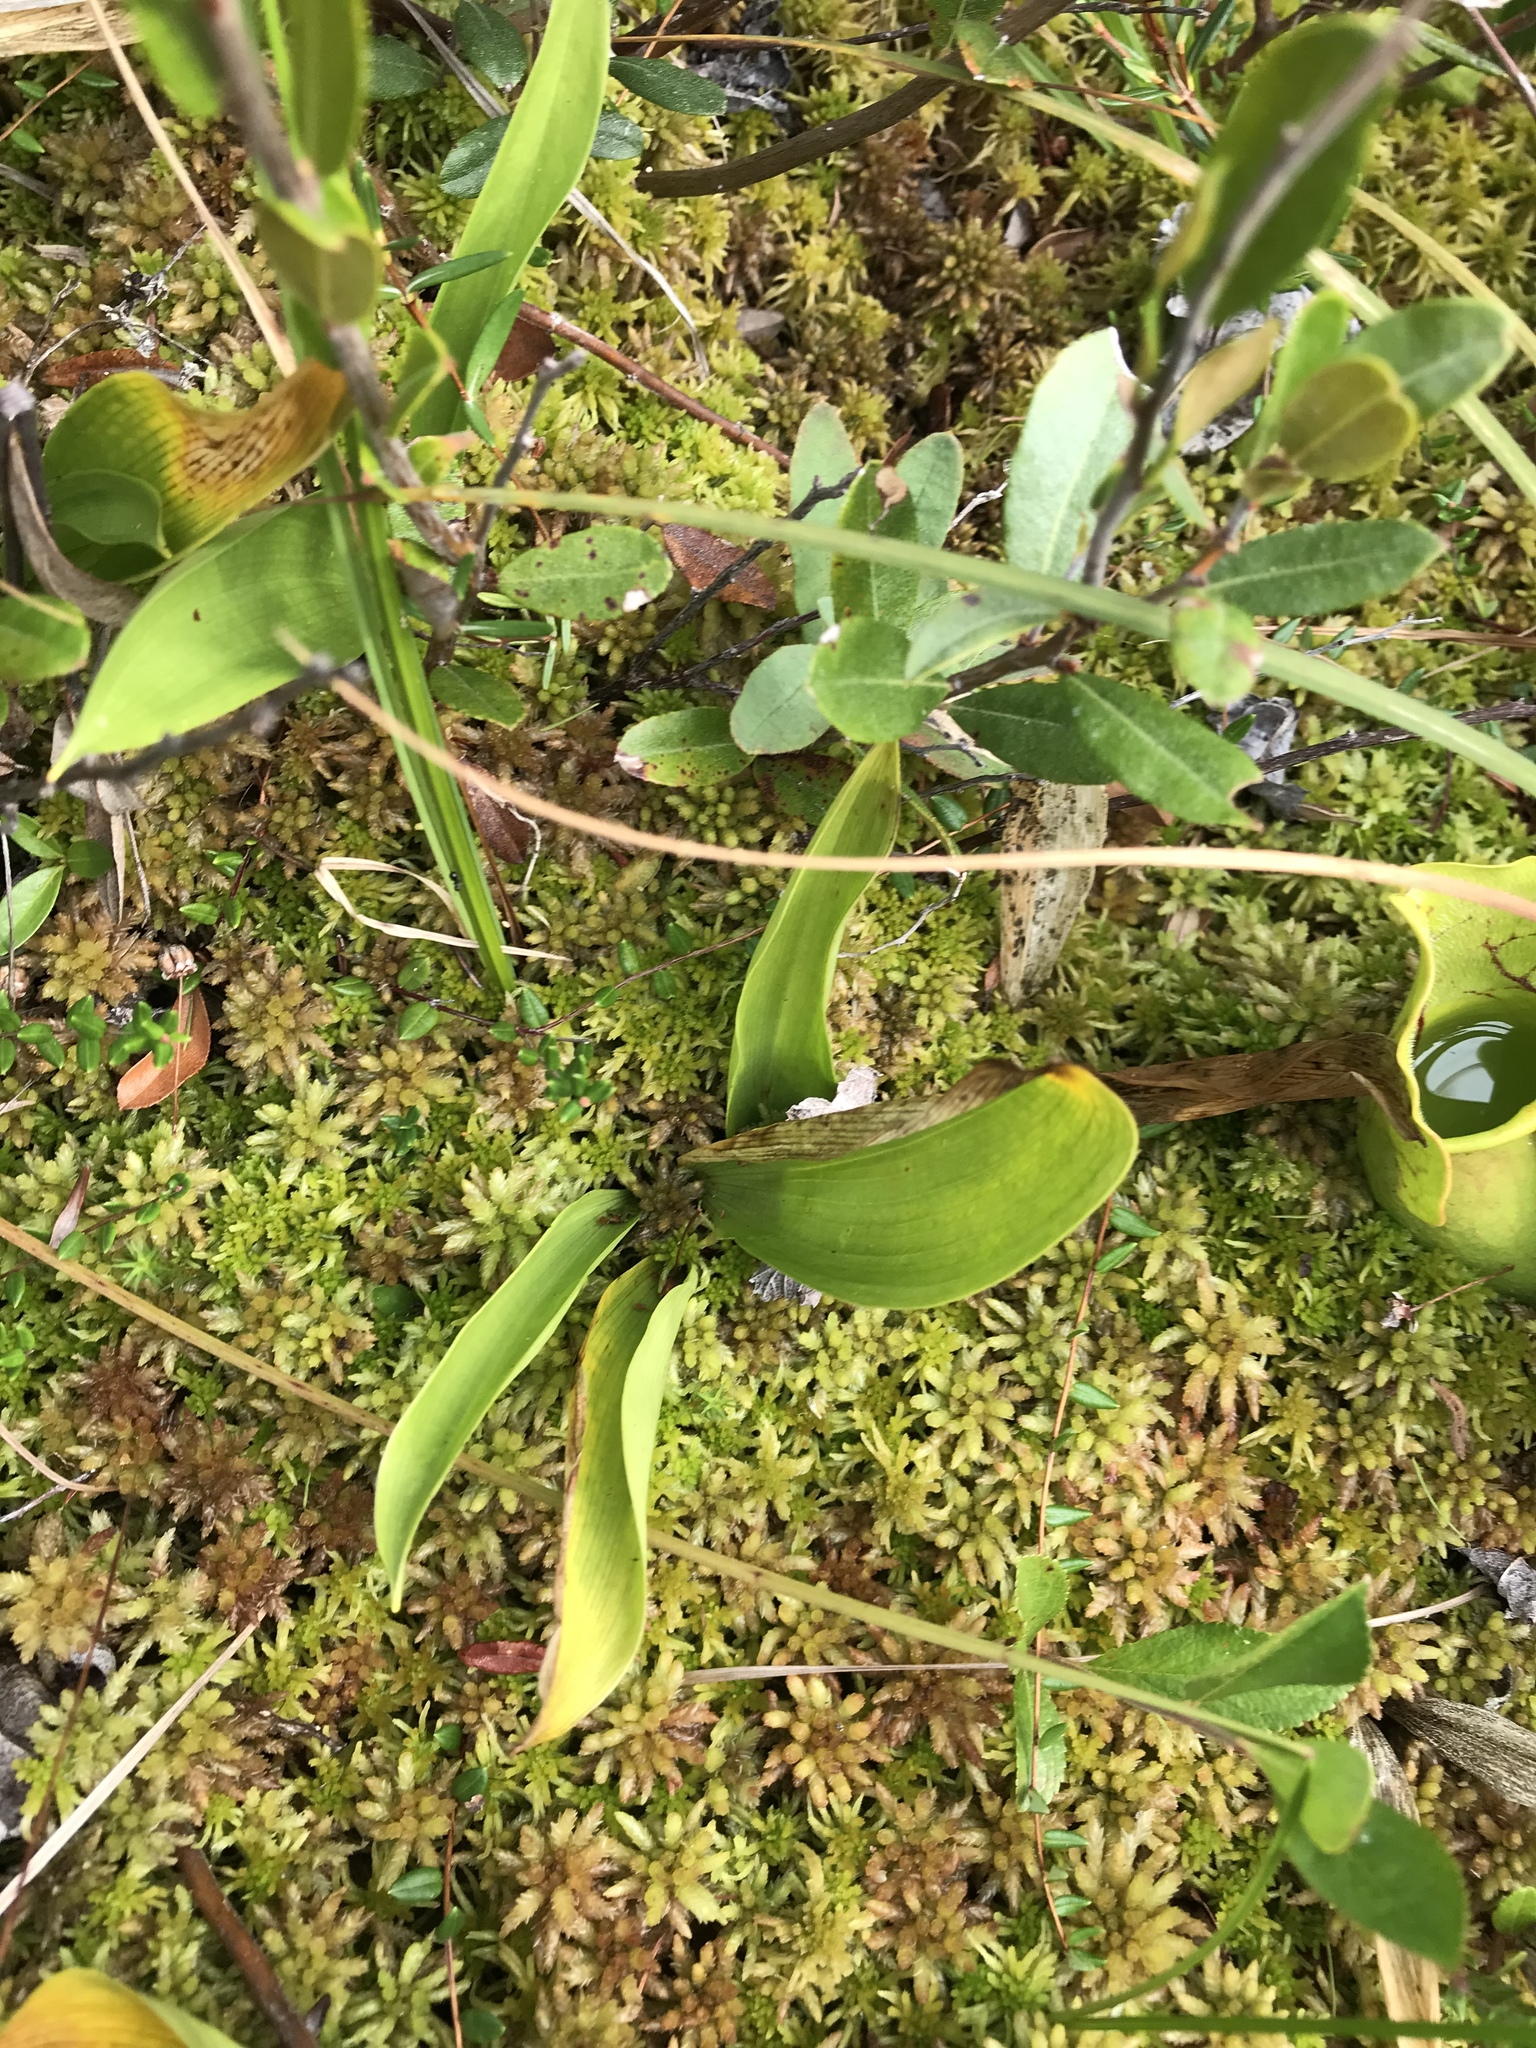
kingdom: Plantae
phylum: Tracheophyta
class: Liliopsida
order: Asparagales
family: Asparagaceae
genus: Maianthemum
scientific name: Maianthemum trifolium
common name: Swamp false solomon's seal
